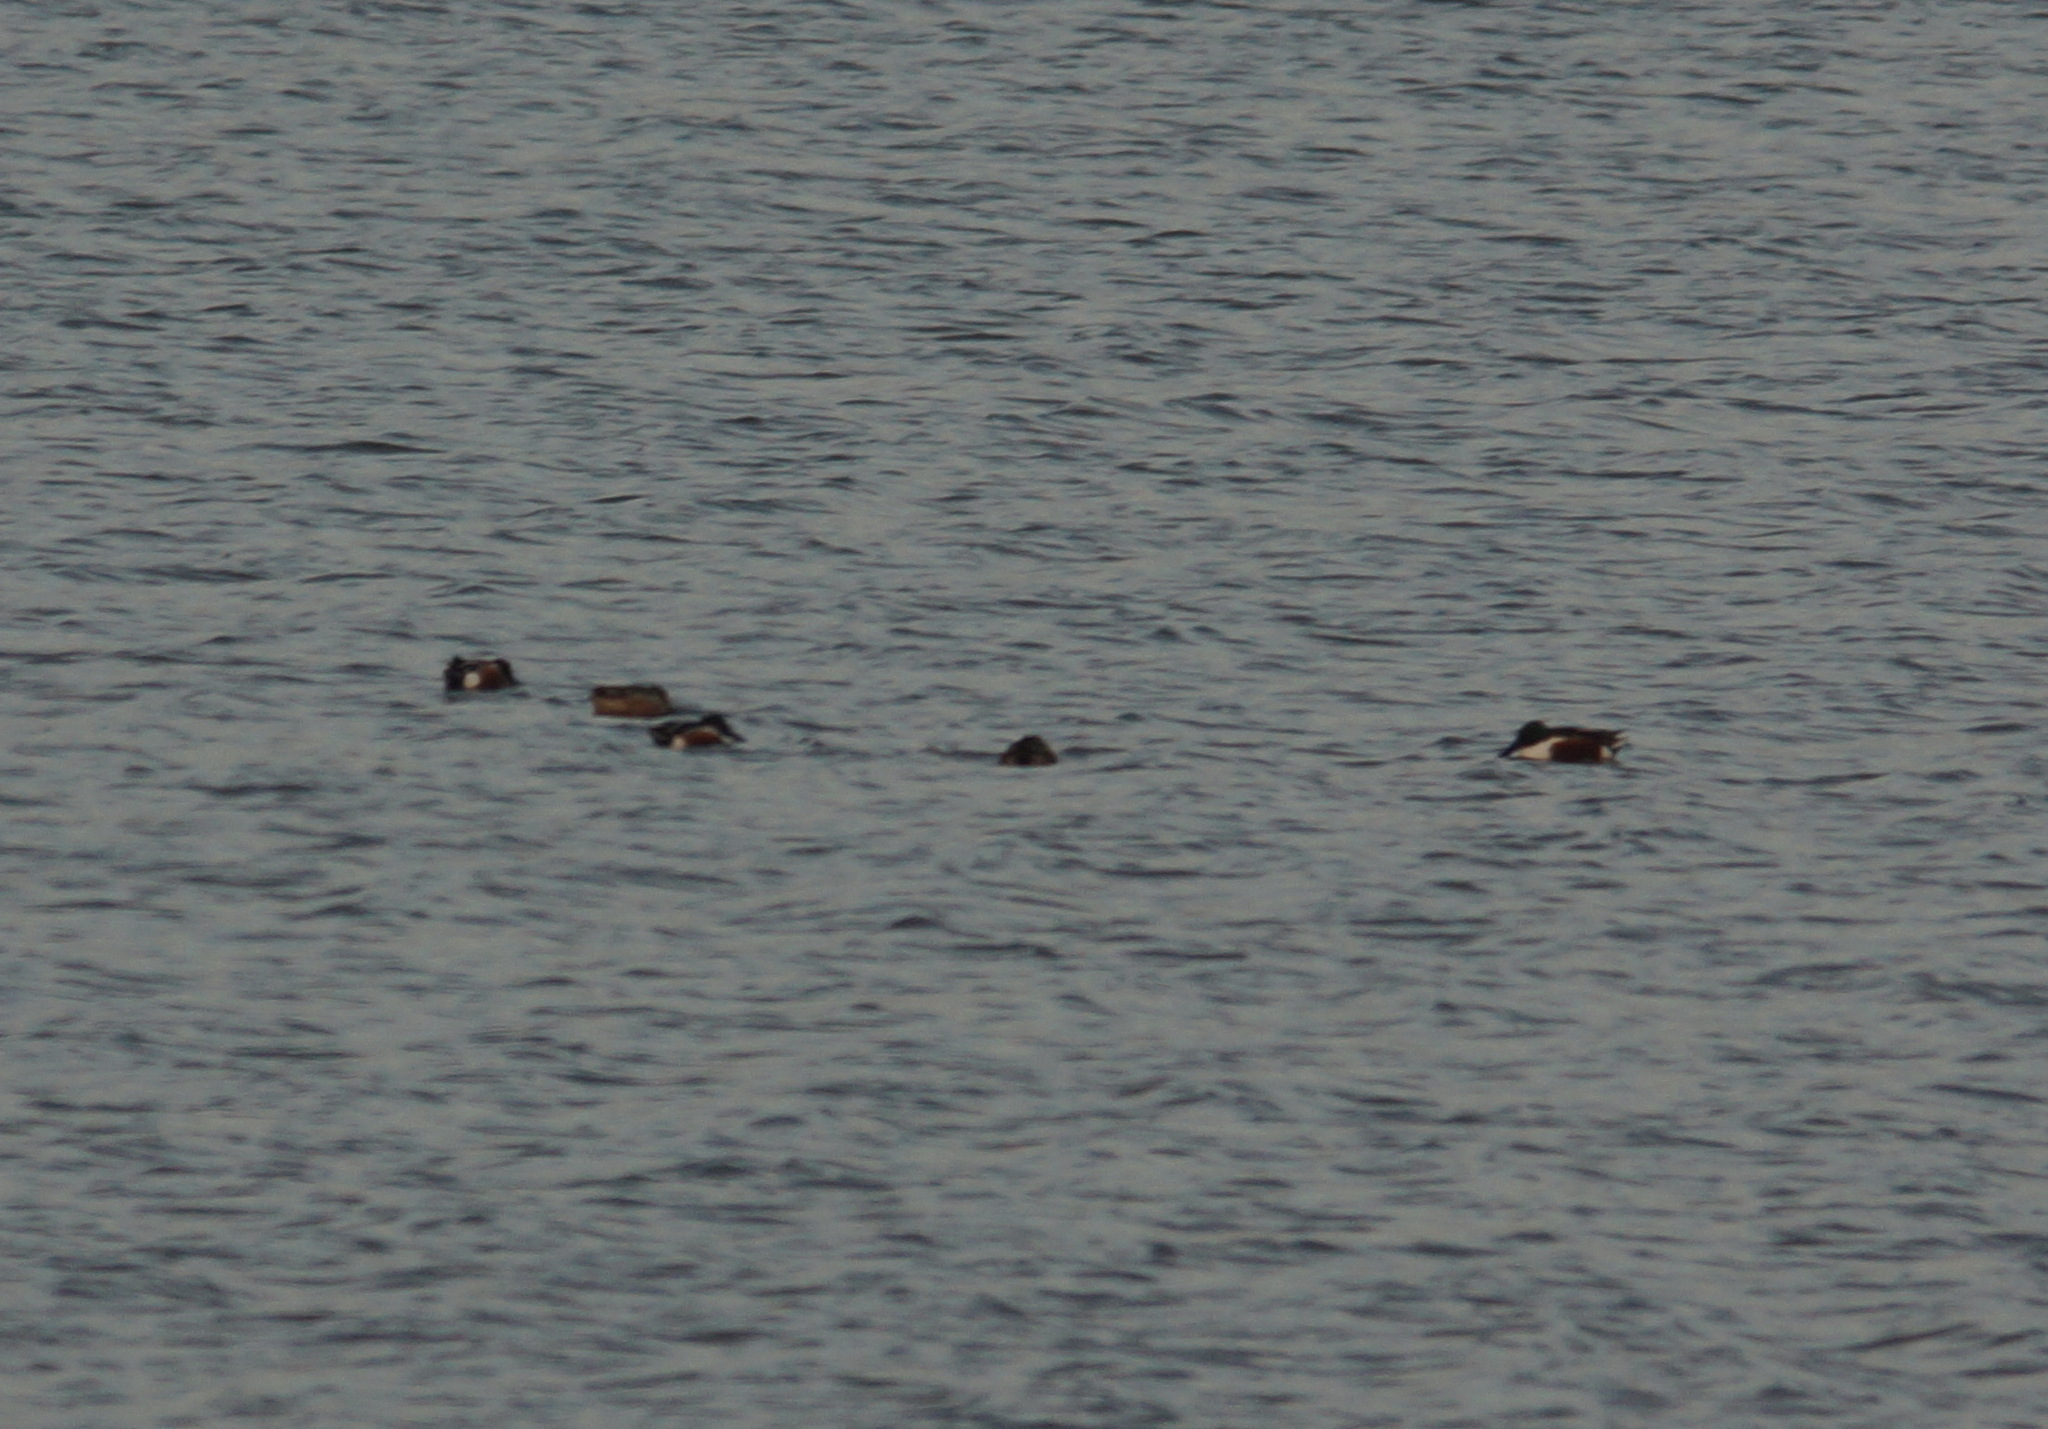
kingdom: Animalia
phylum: Chordata
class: Aves
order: Anseriformes
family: Anatidae
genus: Spatula
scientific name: Spatula clypeata
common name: Northern shoveler
